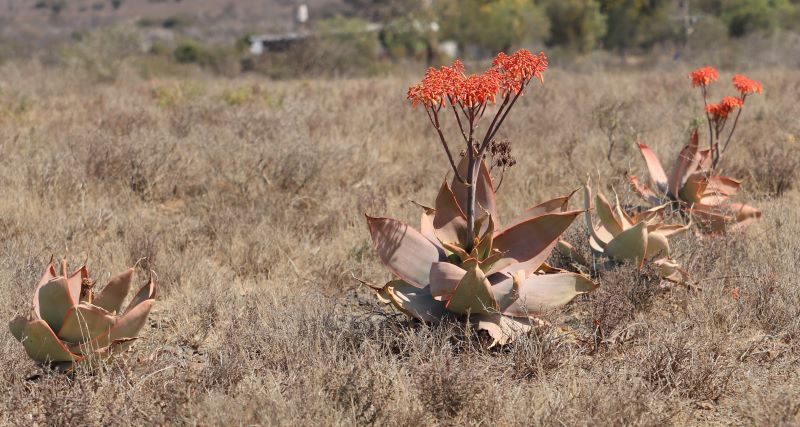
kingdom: Plantae
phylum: Tracheophyta
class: Liliopsida
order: Asparagales
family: Asphodelaceae
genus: Aloe
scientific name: Aloe striata
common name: Coral aloe
